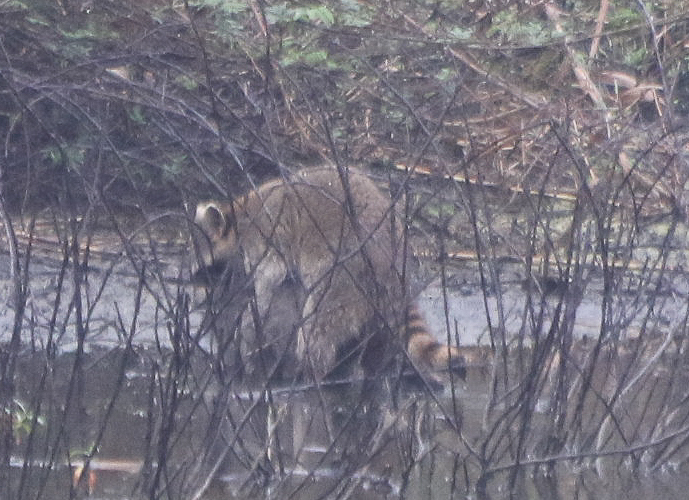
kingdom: Animalia
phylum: Chordata
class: Mammalia
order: Carnivora
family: Procyonidae
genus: Procyon
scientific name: Procyon lotor
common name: Raccoon
